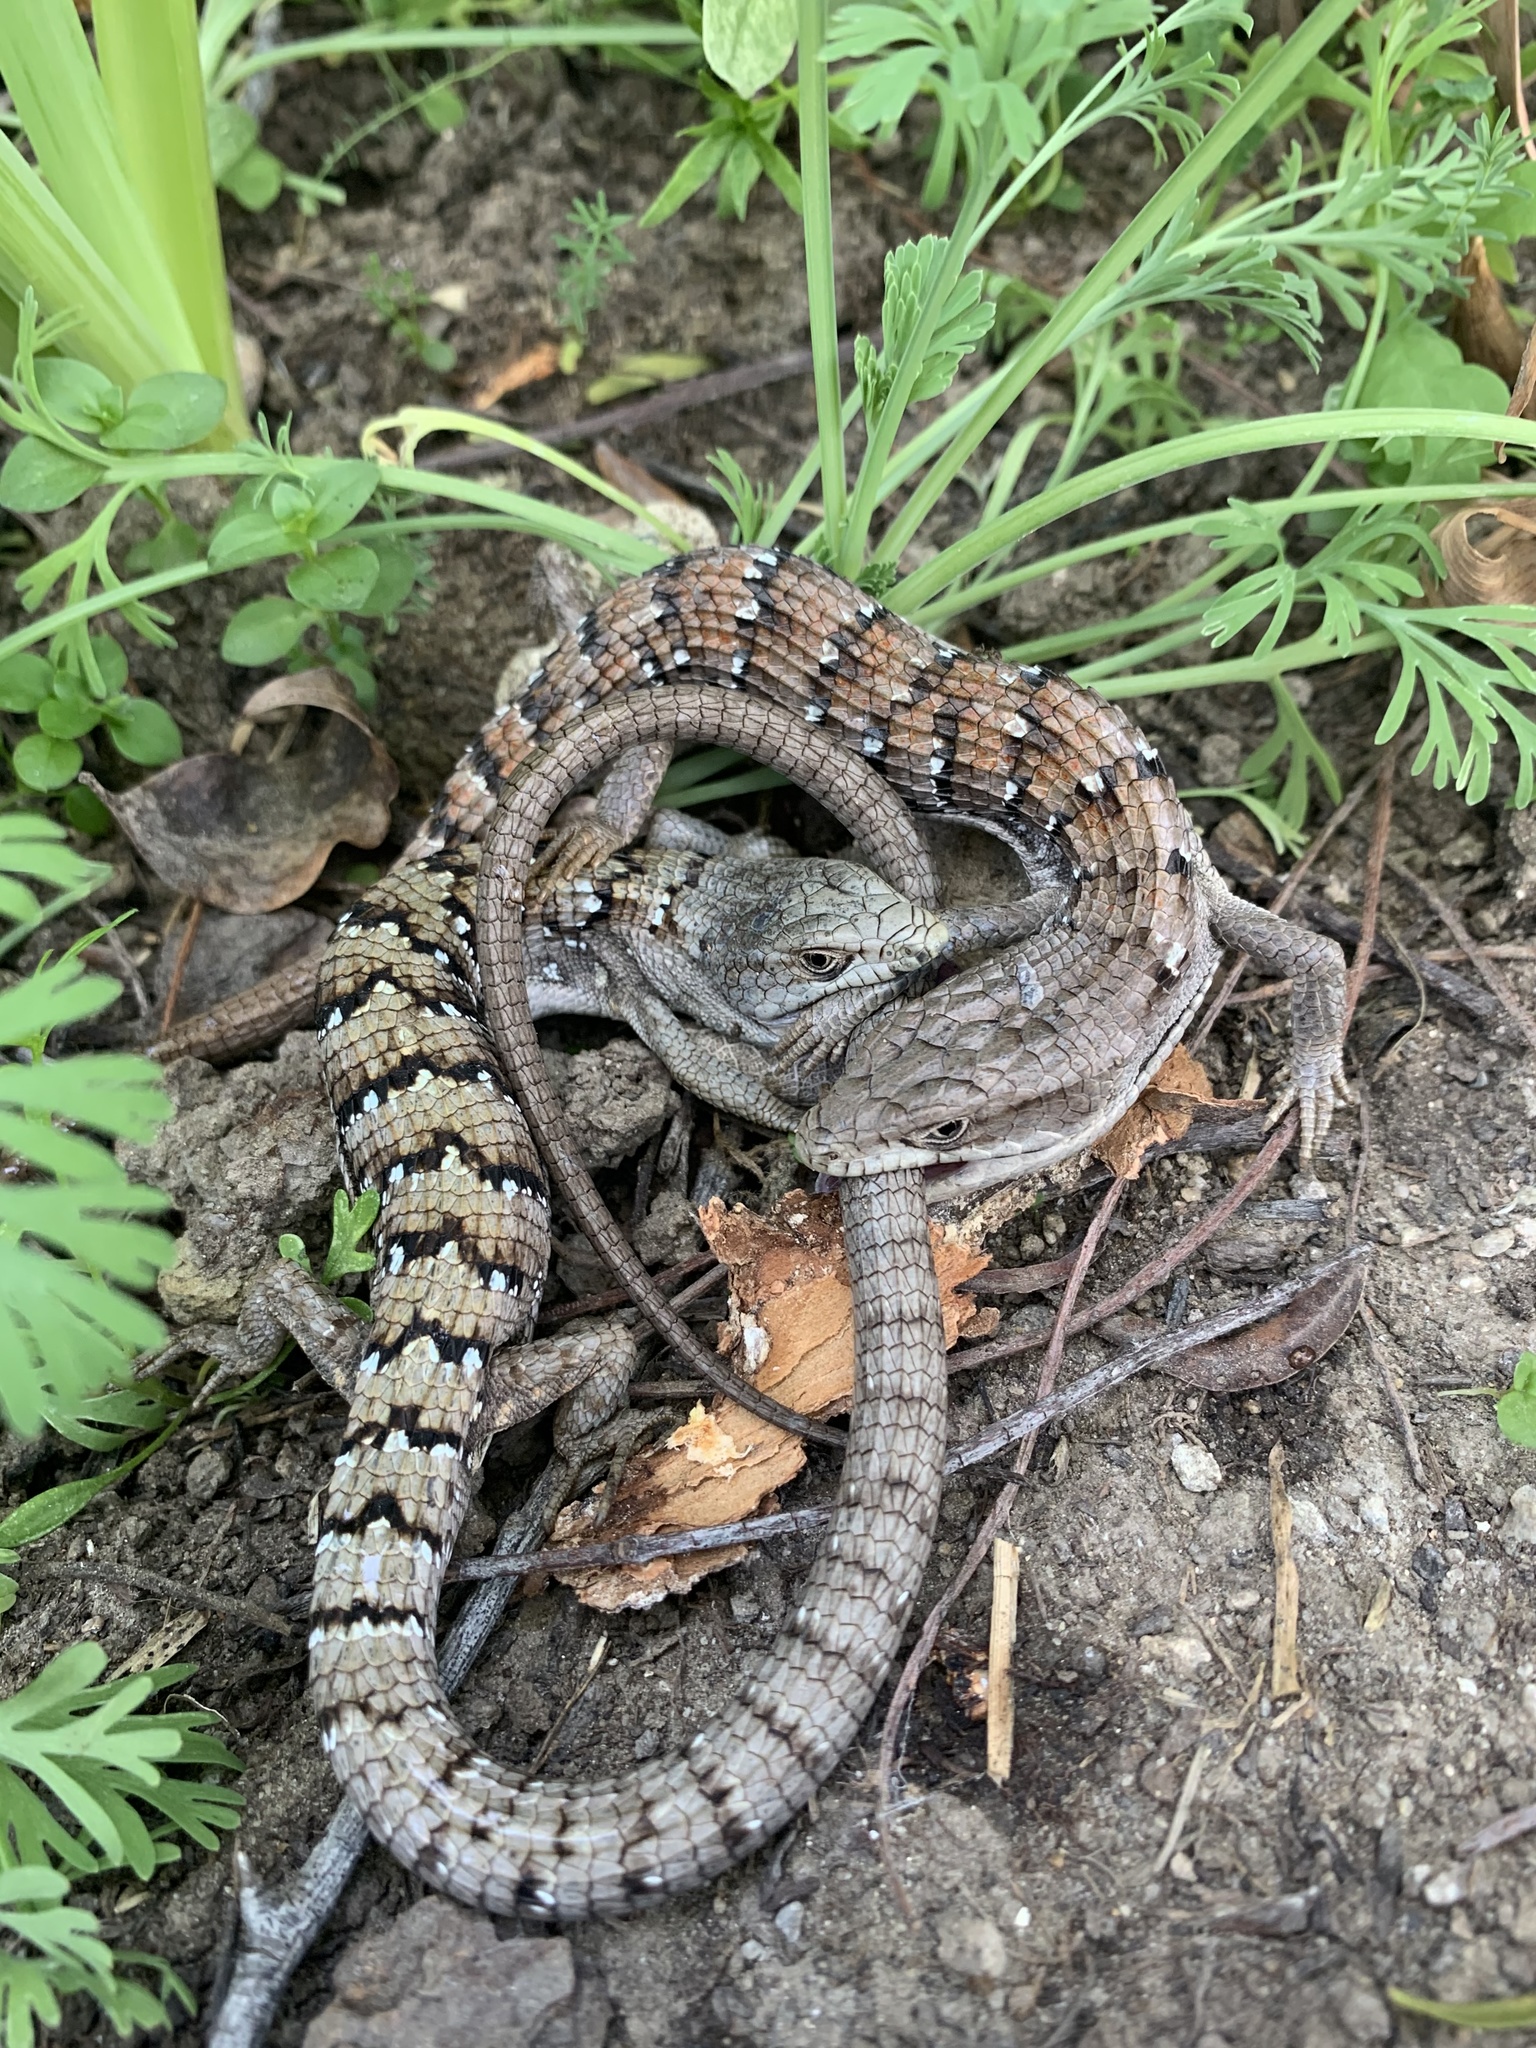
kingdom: Animalia
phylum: Chordata
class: Squamata
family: Anguidae
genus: Elgaria
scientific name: Elgaria multicarinata
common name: Southern alligator lizard
